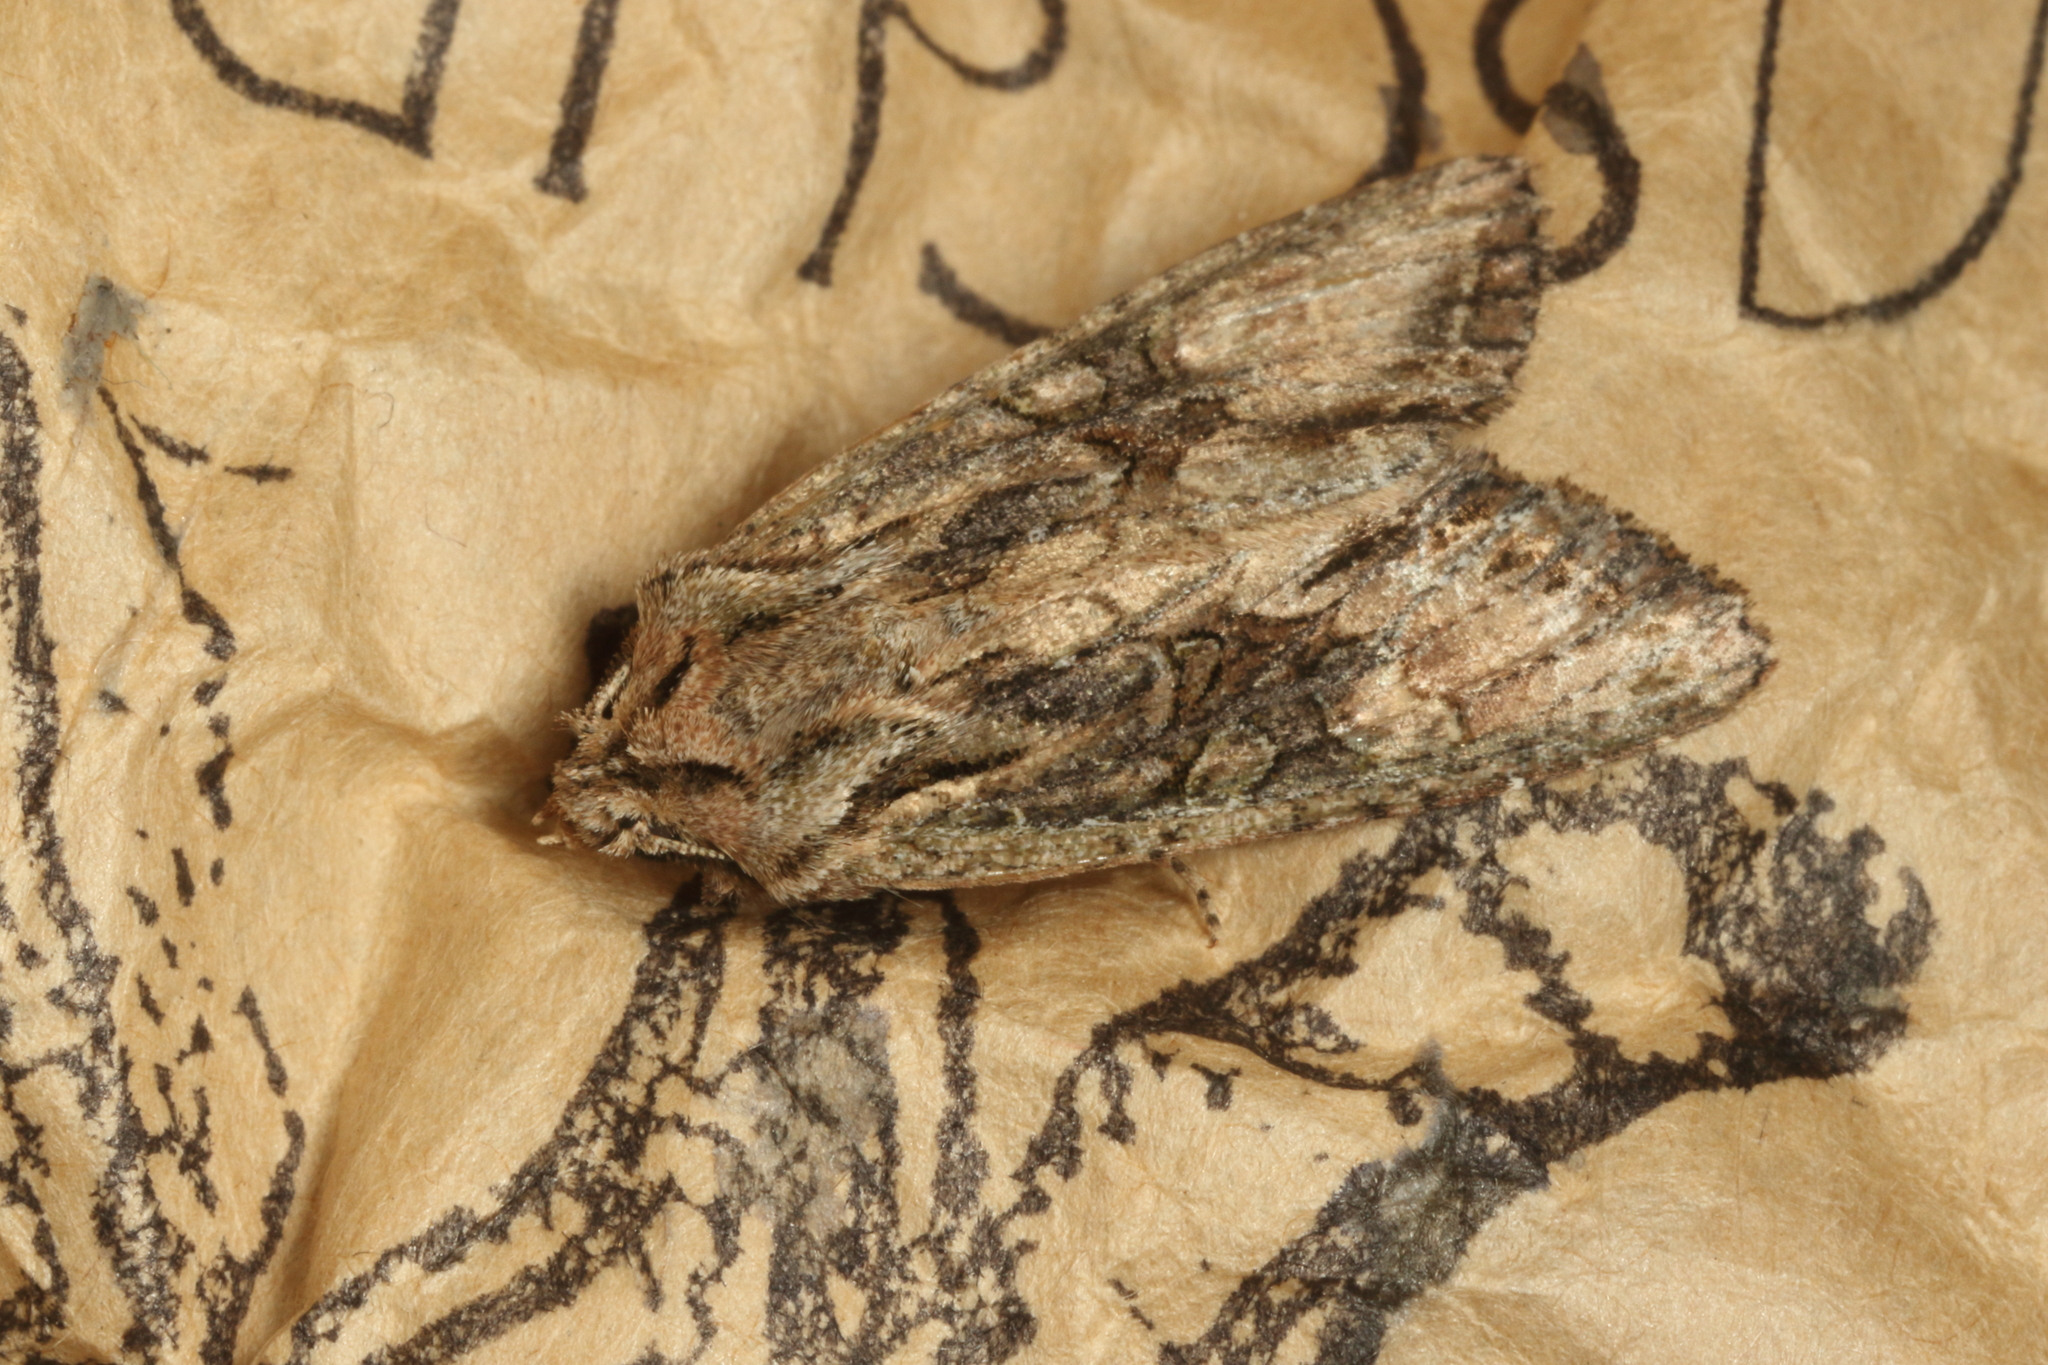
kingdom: Animalia
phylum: Arthropoda
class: Insecta
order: Lepidoptera
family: Noctuidae
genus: Ichneutica
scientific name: Ichneutica mutans
